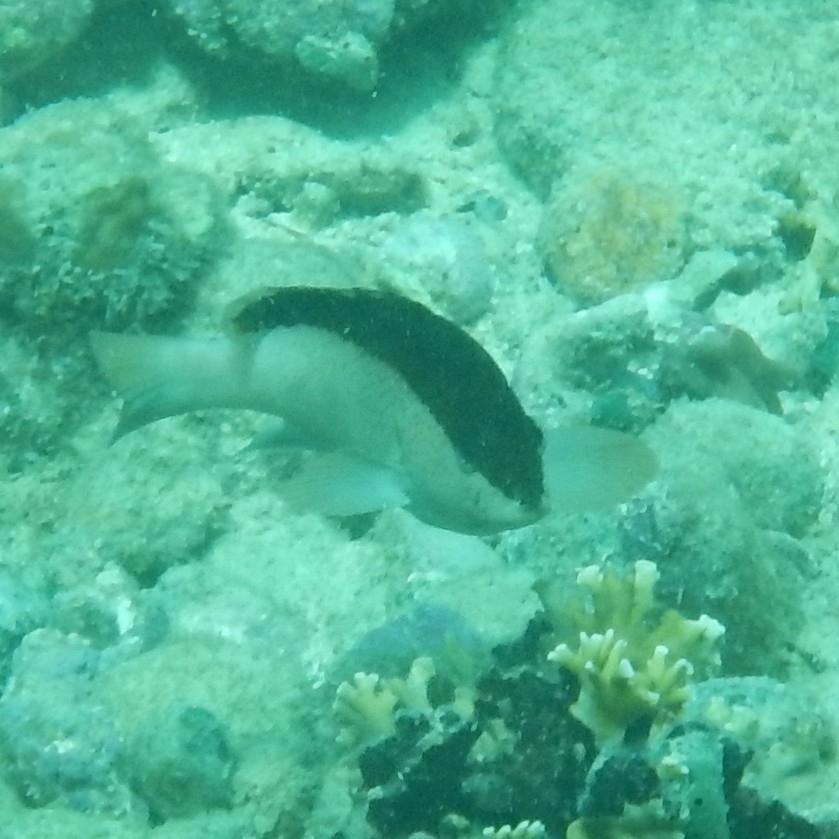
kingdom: Animalia
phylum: Chordata
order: Perciformes
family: Serranidae
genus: Cephalopholis
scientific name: Cephalopholis fulva
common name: Butterfish
